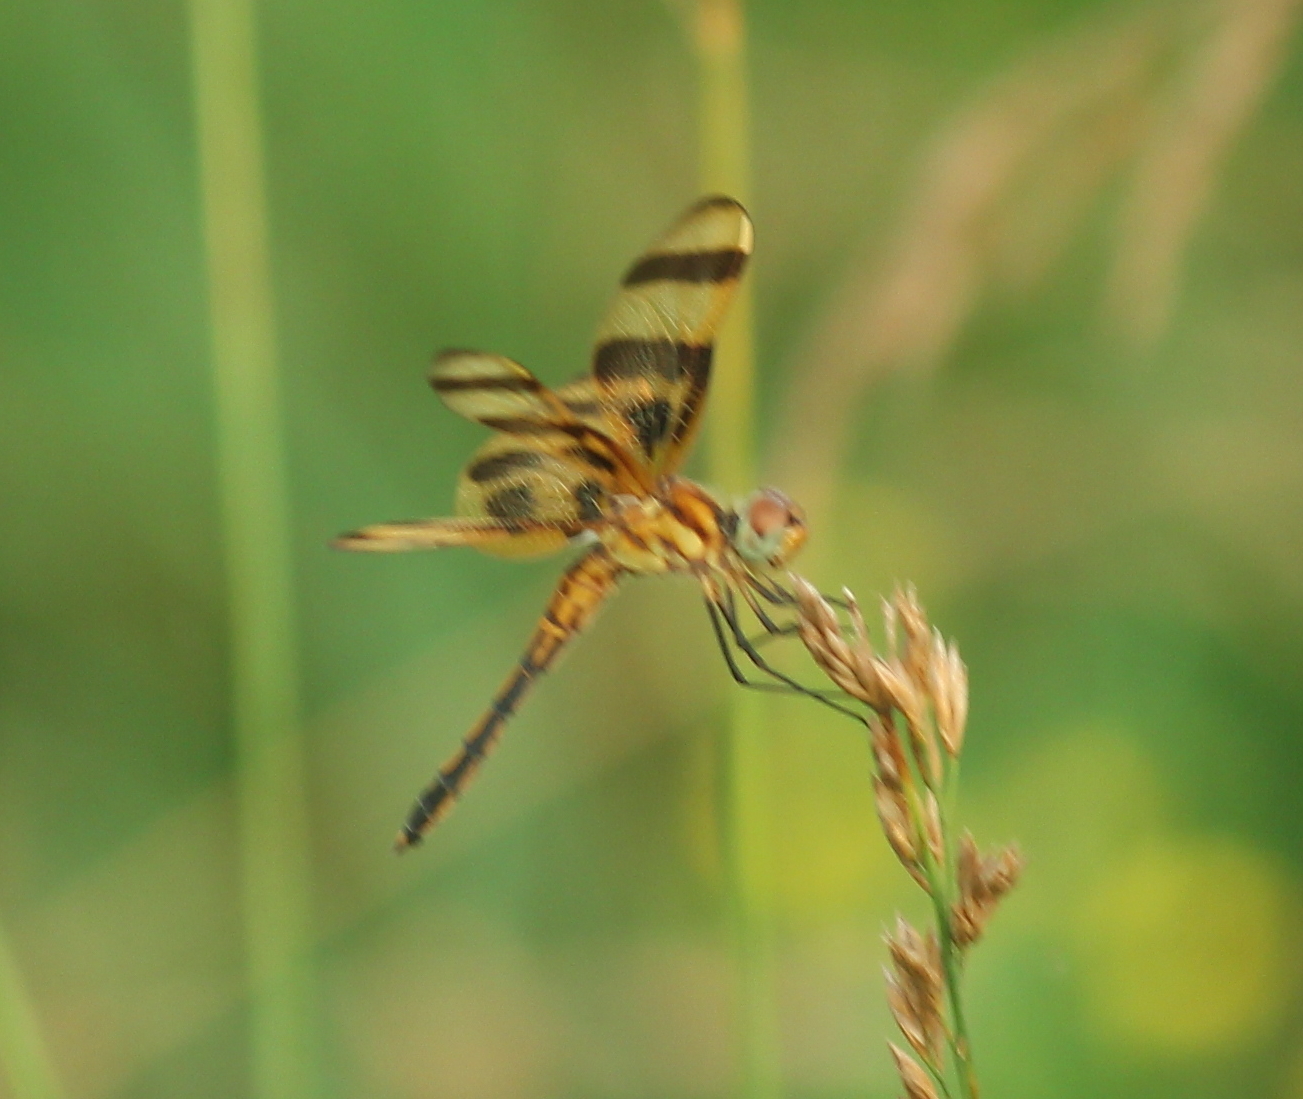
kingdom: Animalia
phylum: Arthropoda
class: Insecta
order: Odonata
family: Libellulidae
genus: Celithemis
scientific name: Celithemis eponina
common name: Halloween pennant
